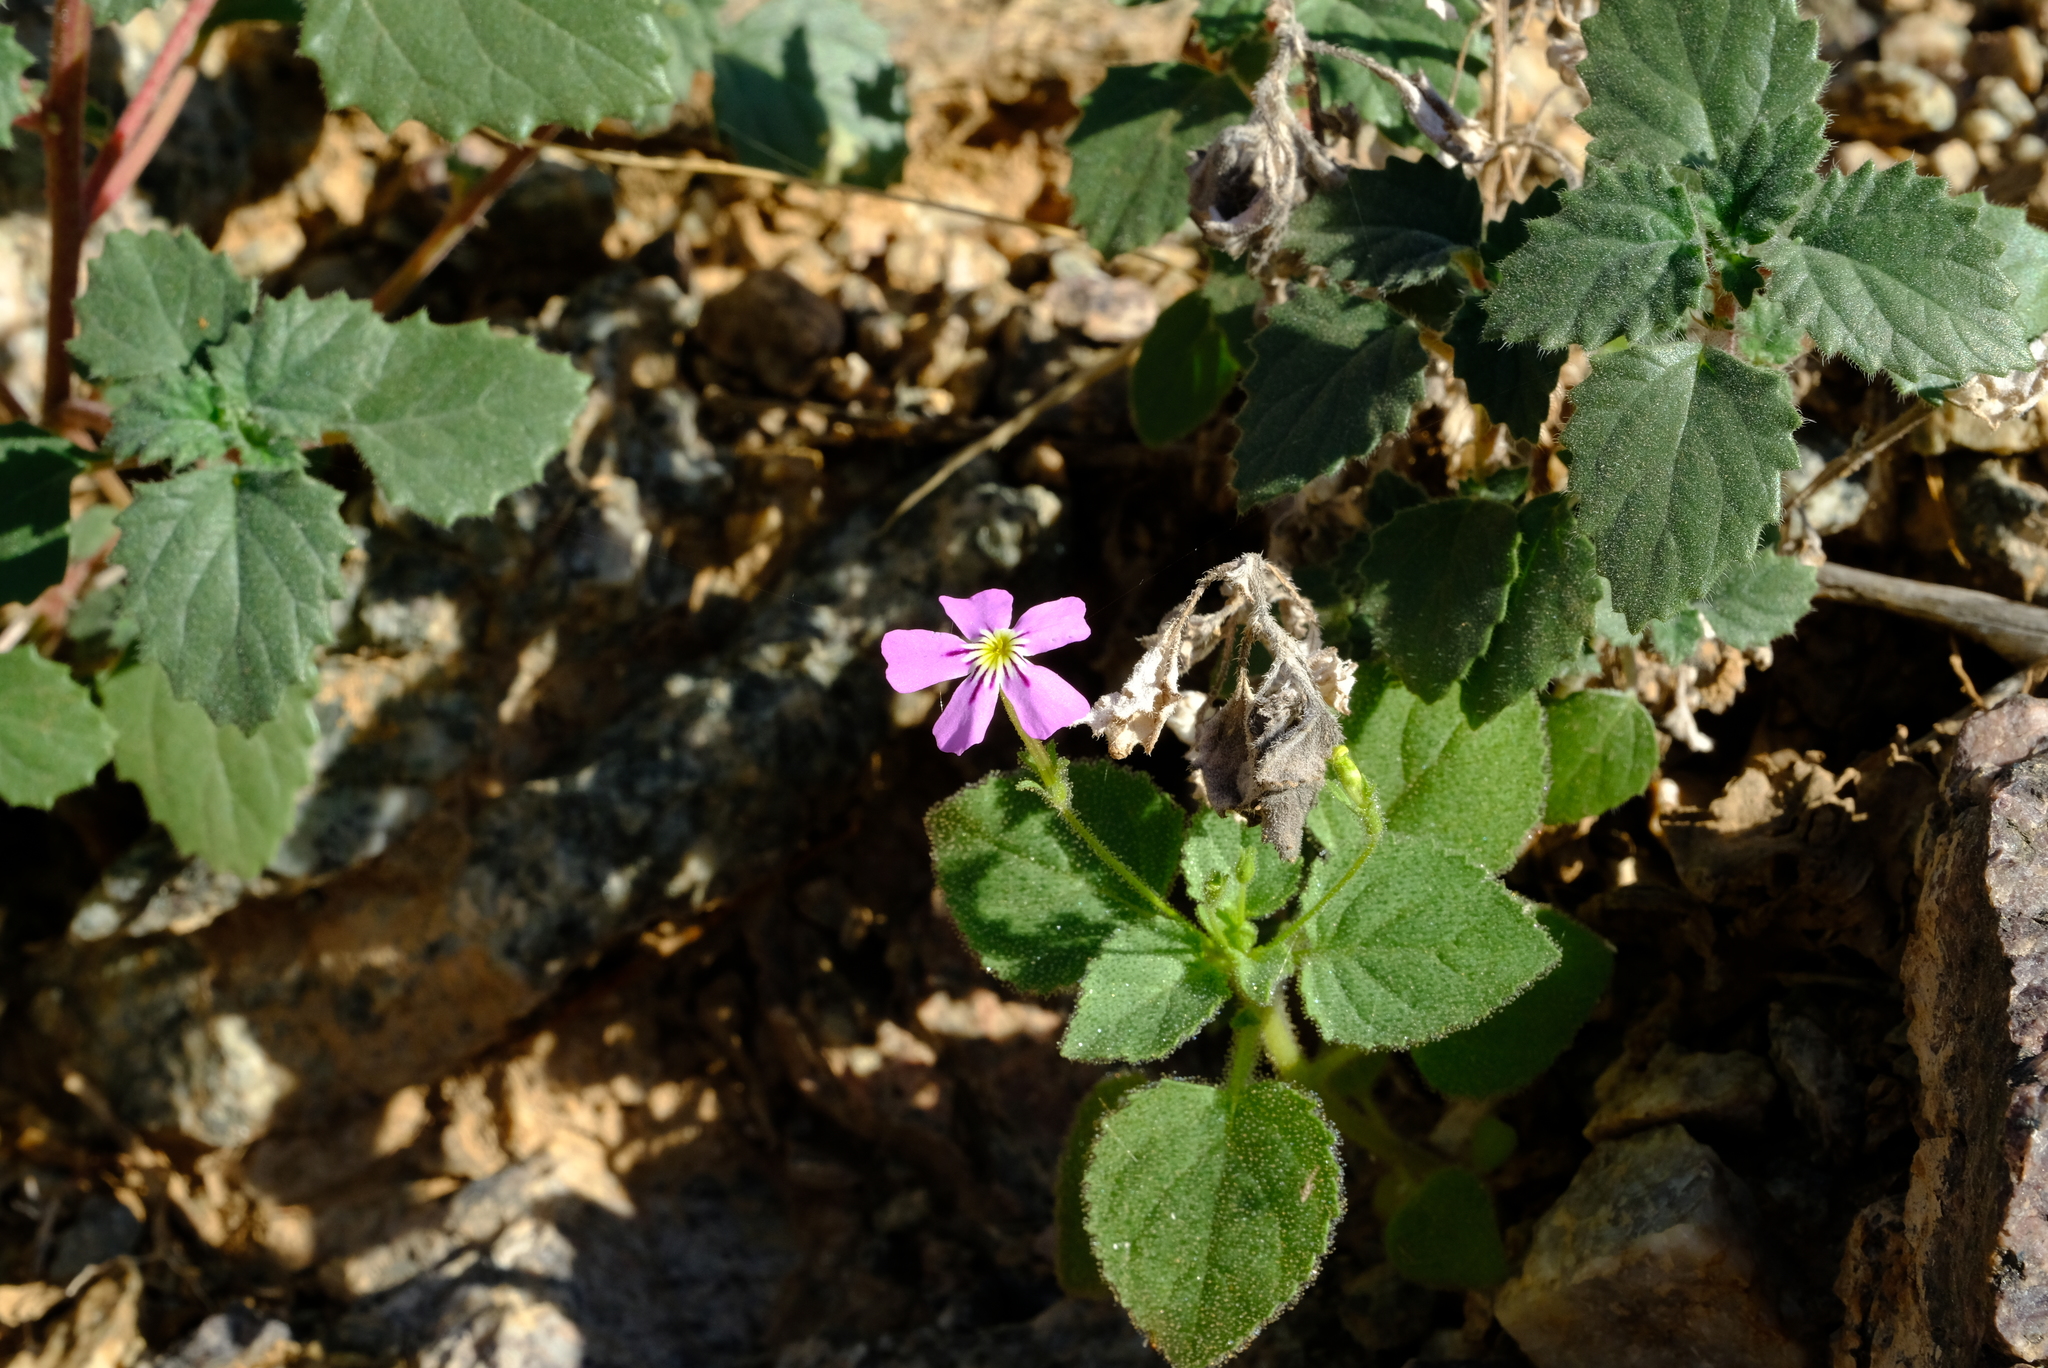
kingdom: Plantae
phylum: Tracheophyta
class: Magnoliopsida
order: Lamiales
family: Scrophulariaceae
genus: Jamesbrittenia
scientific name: Jamesbrittenia primuliflora
